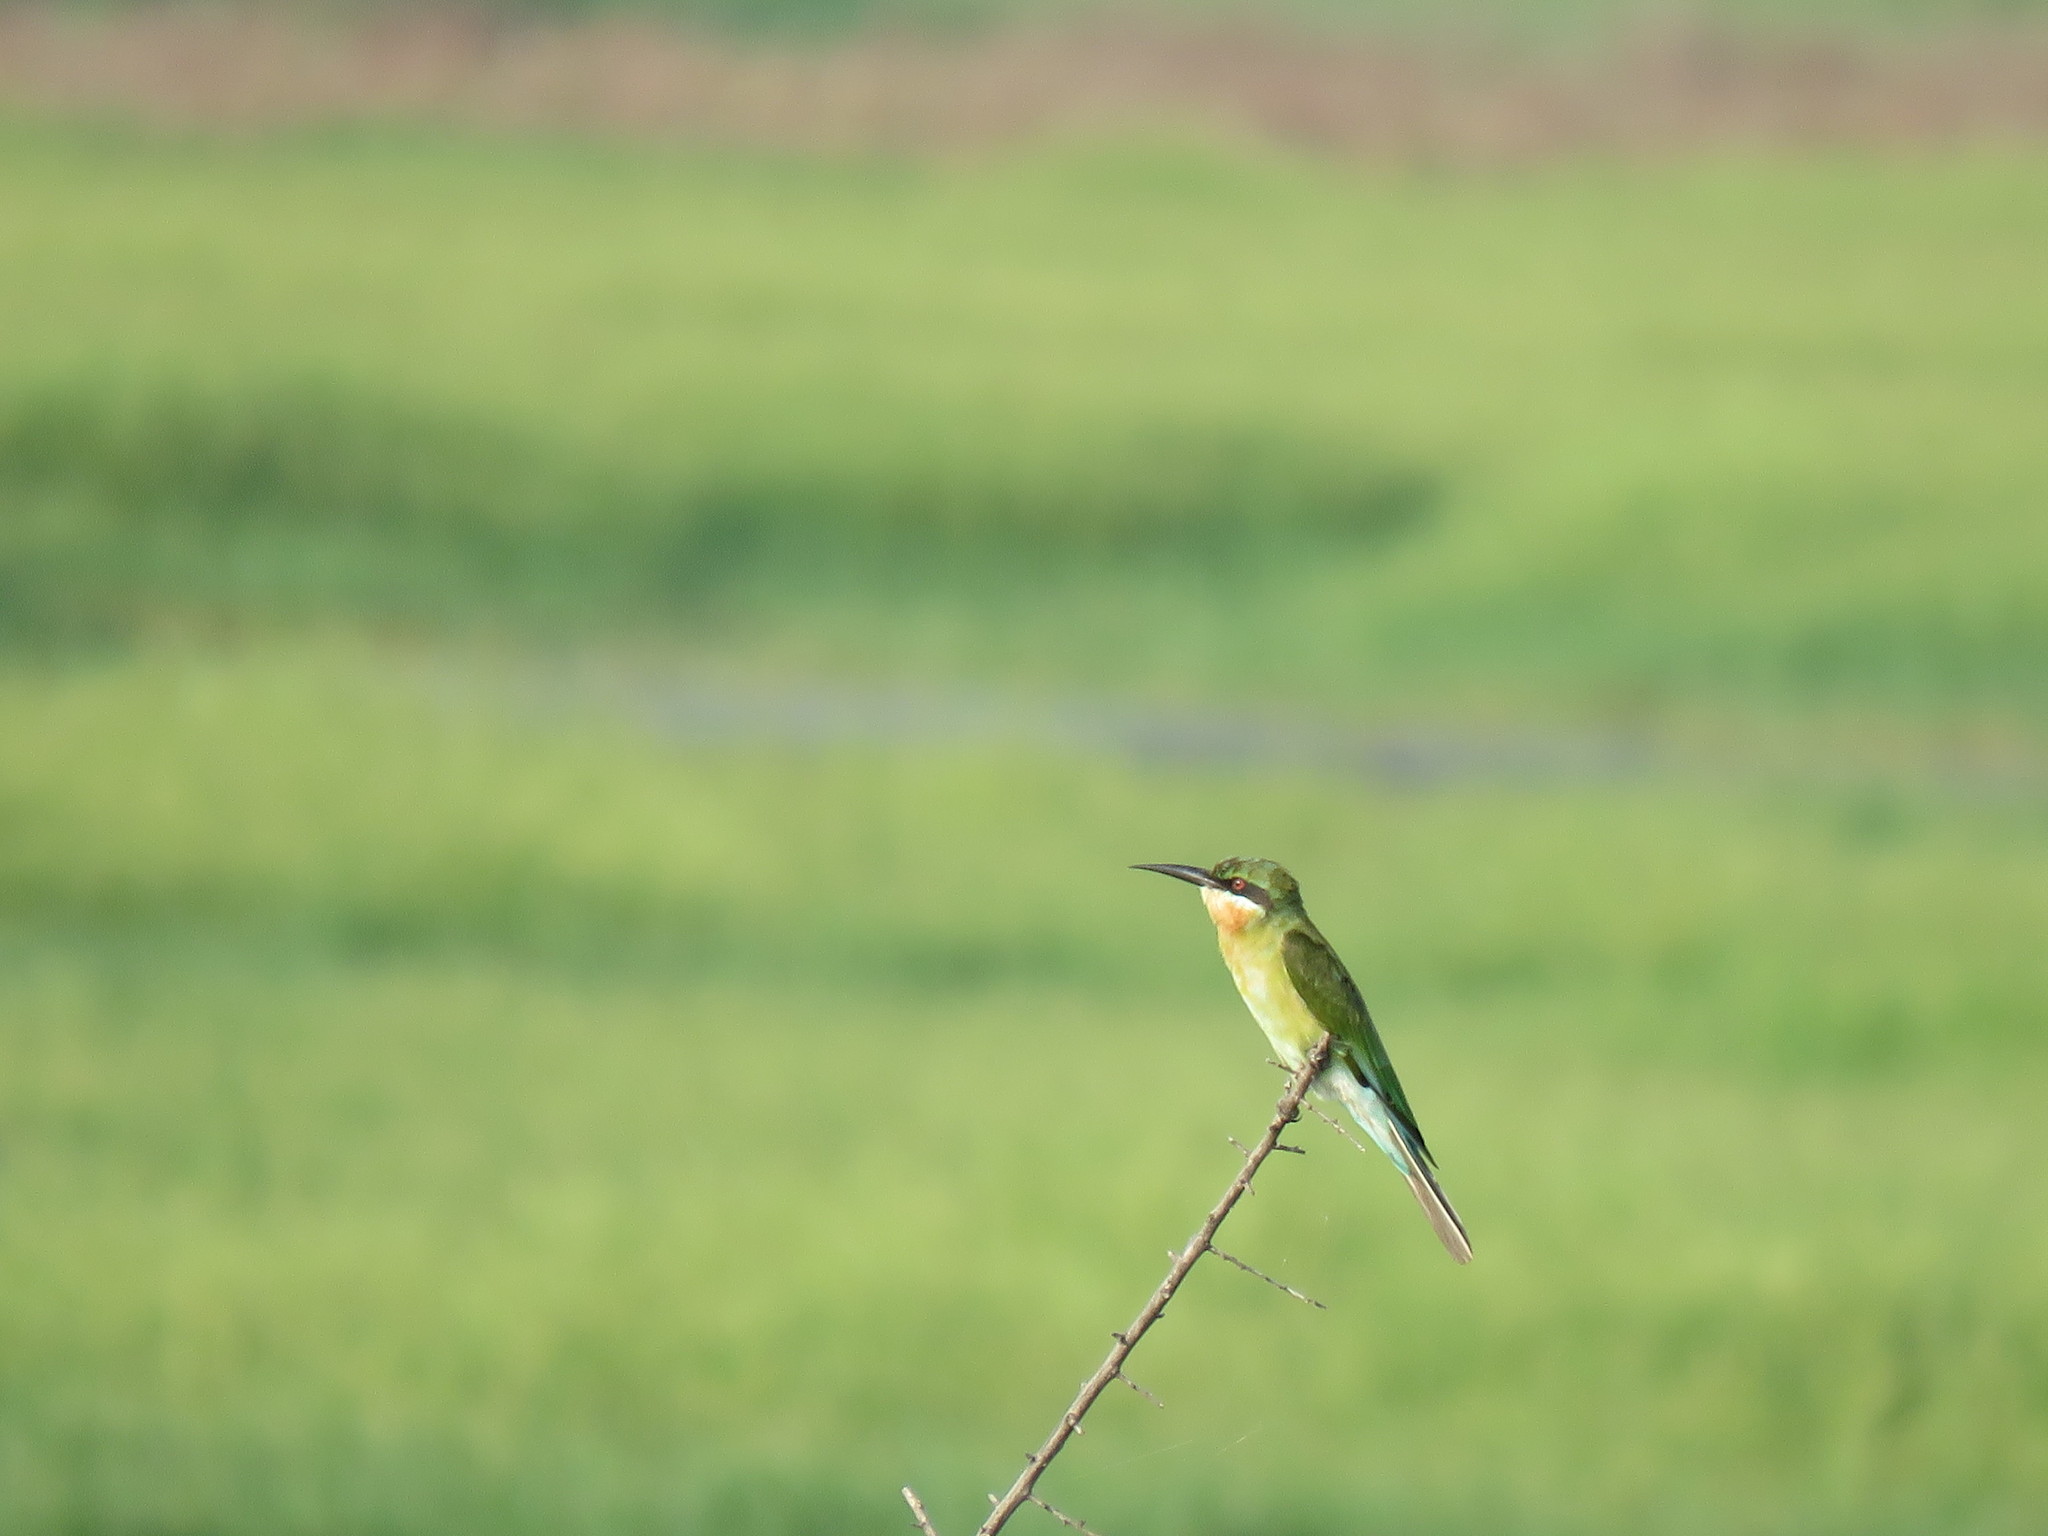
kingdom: Animalia
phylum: Chordata
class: Aves
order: Coraciiformes
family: Meropidae
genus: Merops
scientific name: Merops philippinus
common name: Blue-tailed bee-eater
